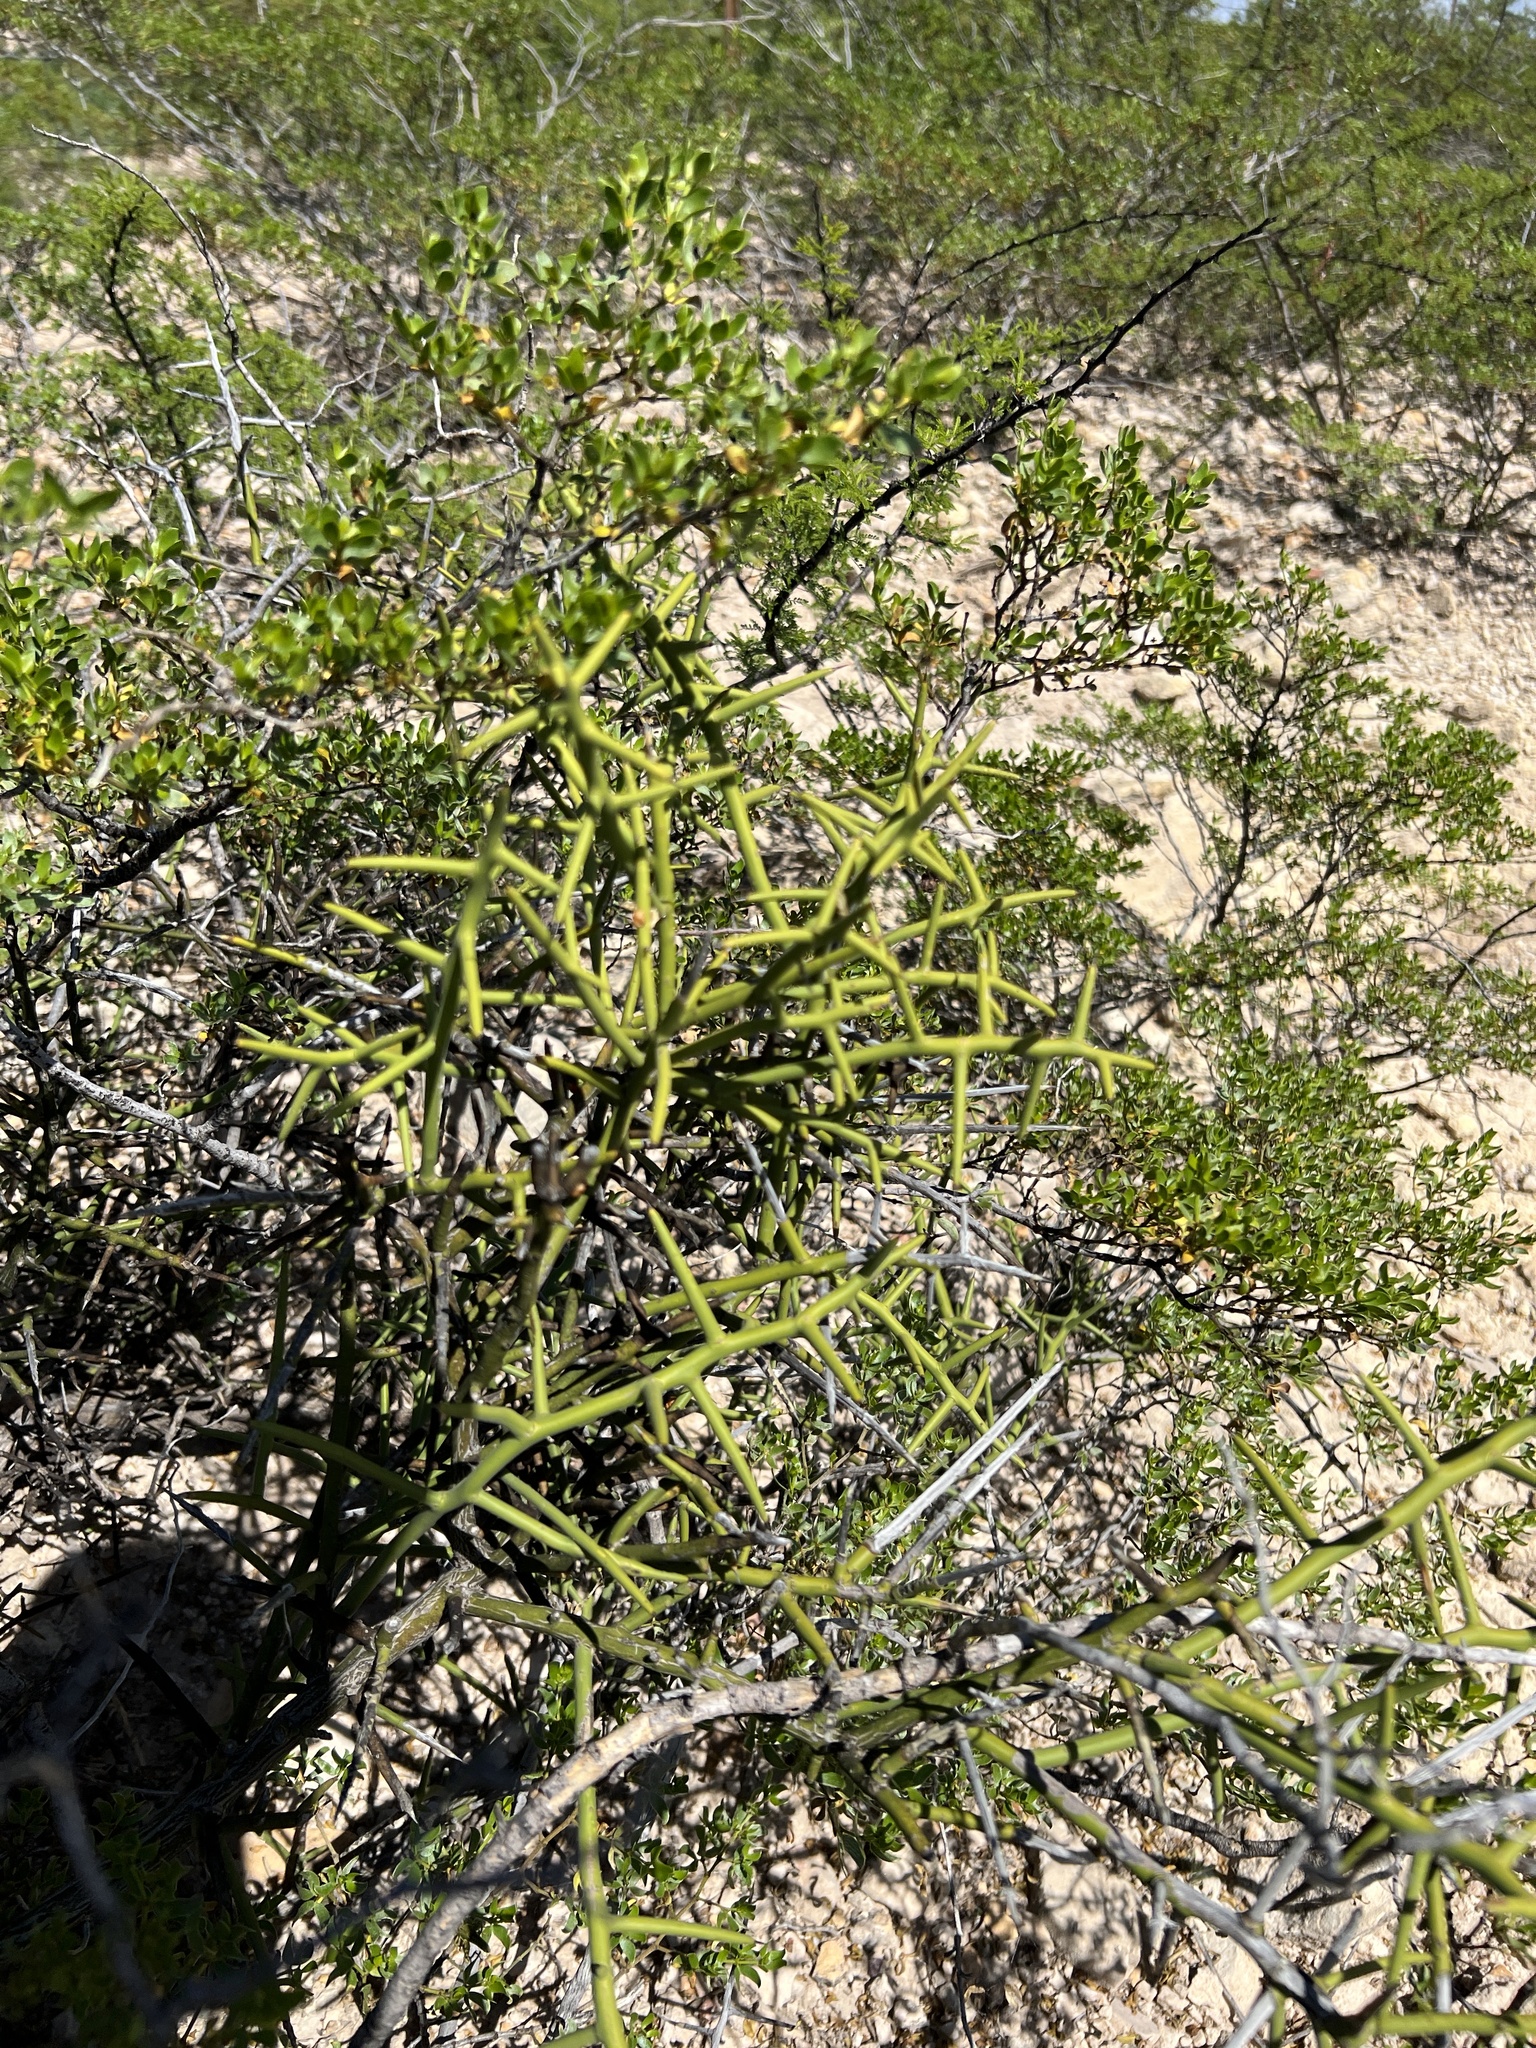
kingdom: Plantae
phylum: Tracheophyta
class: Magnoliopsida
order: Brassicales
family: Koeberliniaceae
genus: Koeberlinia
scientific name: Koeberlinia spinosa
